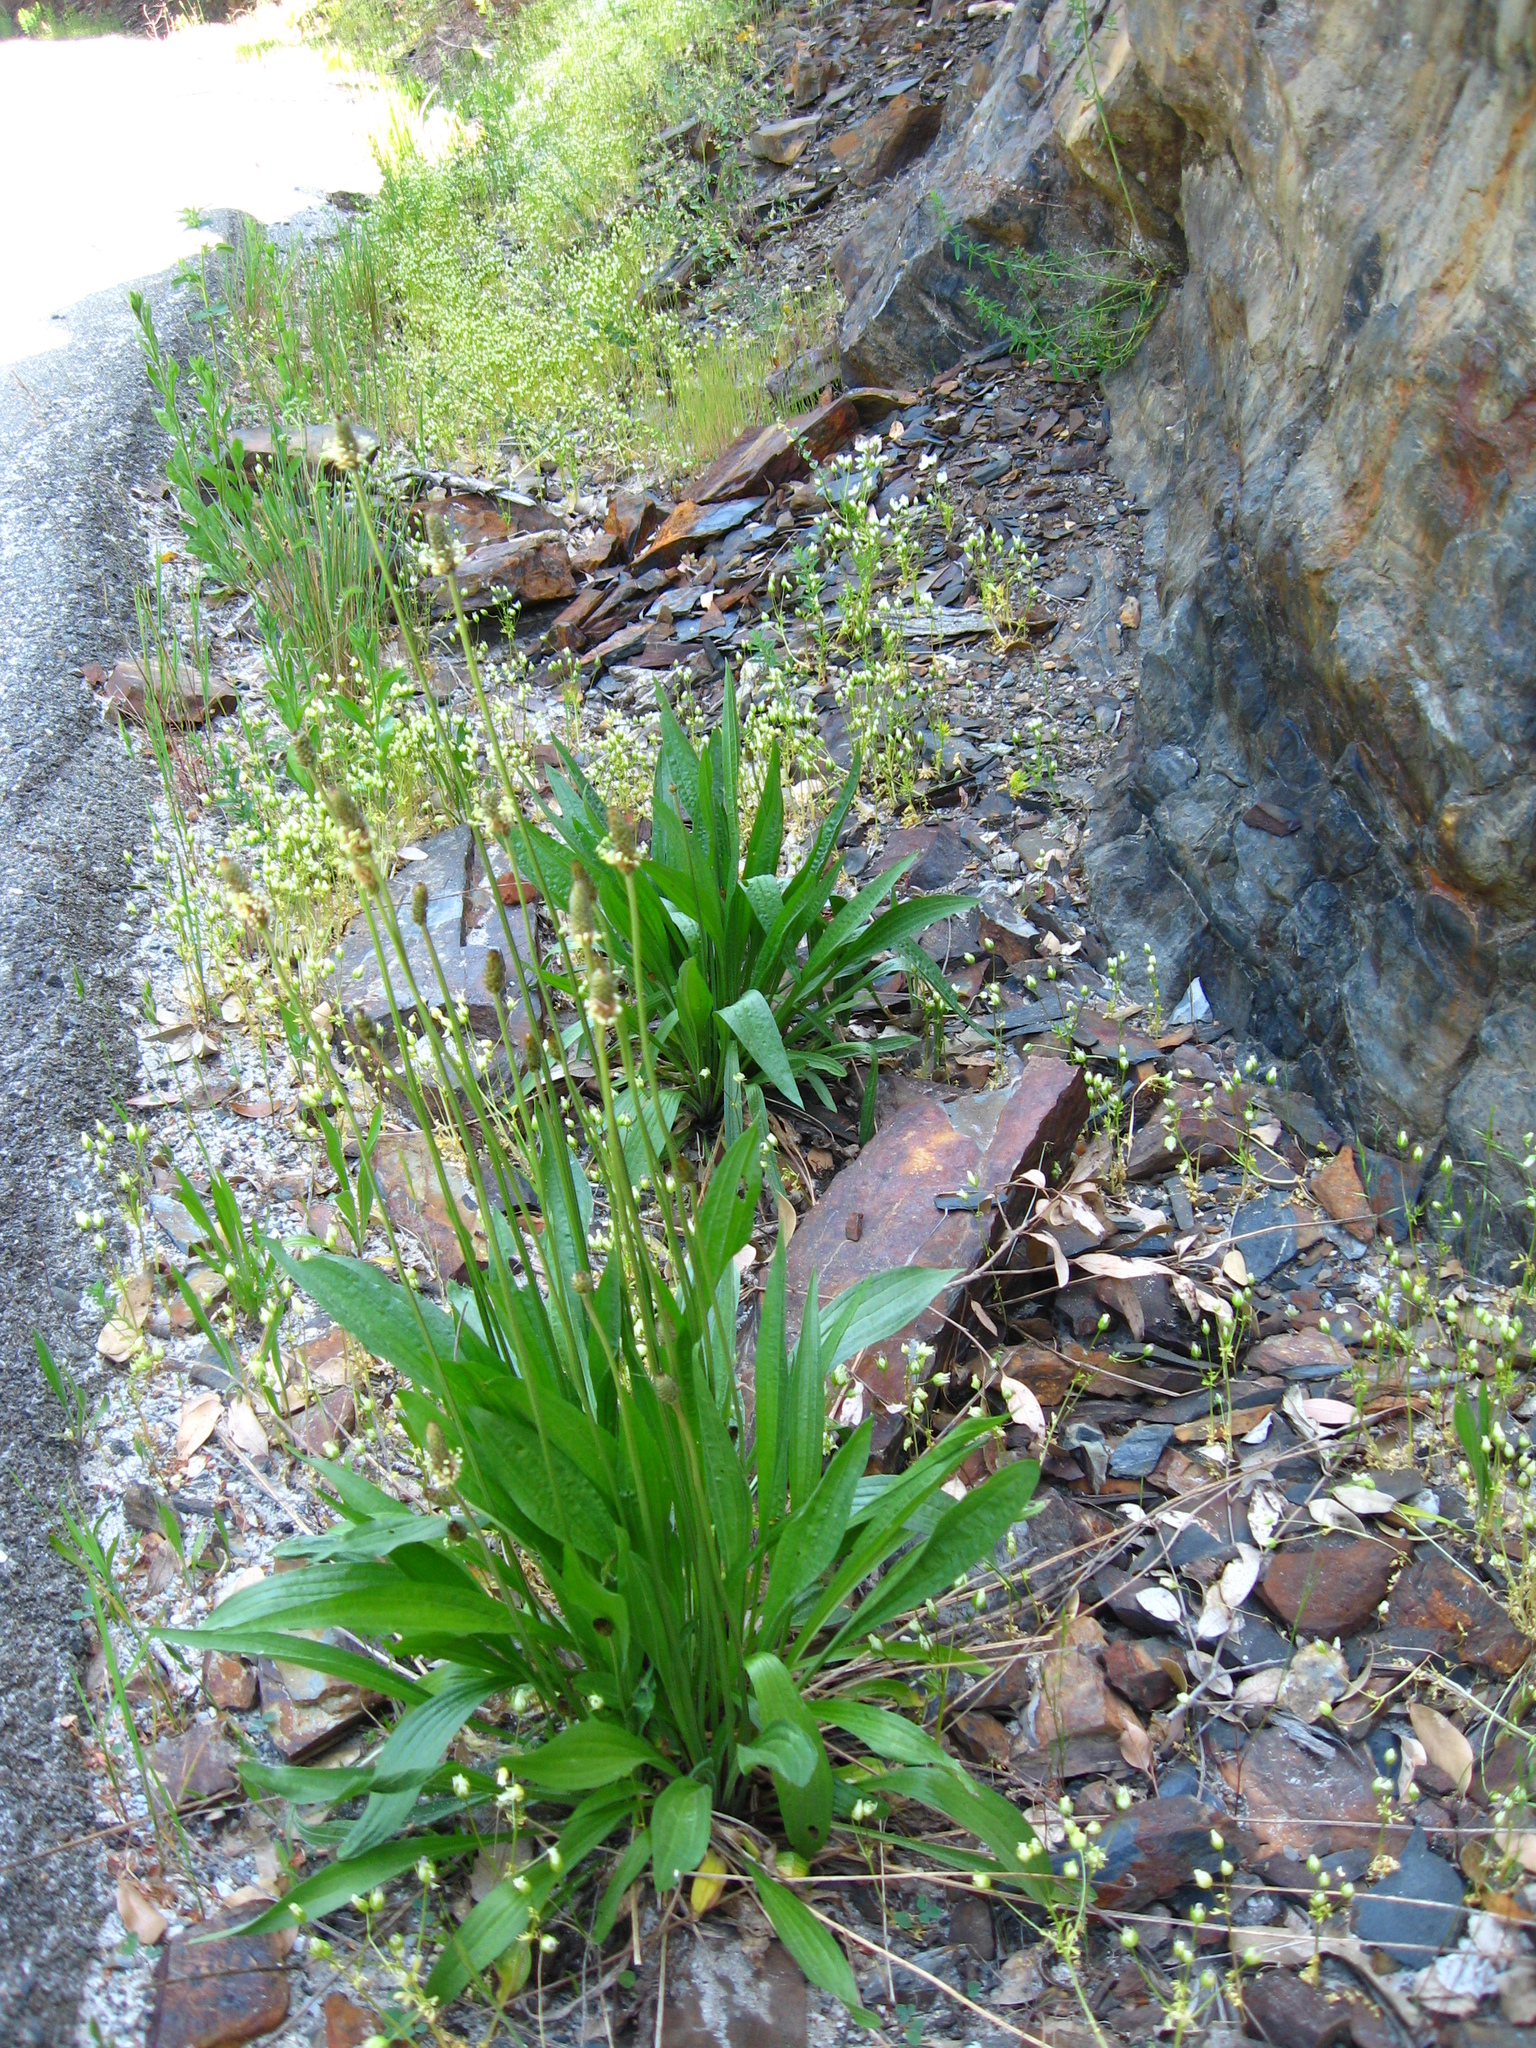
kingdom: Plantae
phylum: Tracheophyta
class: Magnoliopsida
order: Lamiales
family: Plantaginaceae
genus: Plantago
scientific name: Plantago lanceolata
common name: Ribwort plantain
